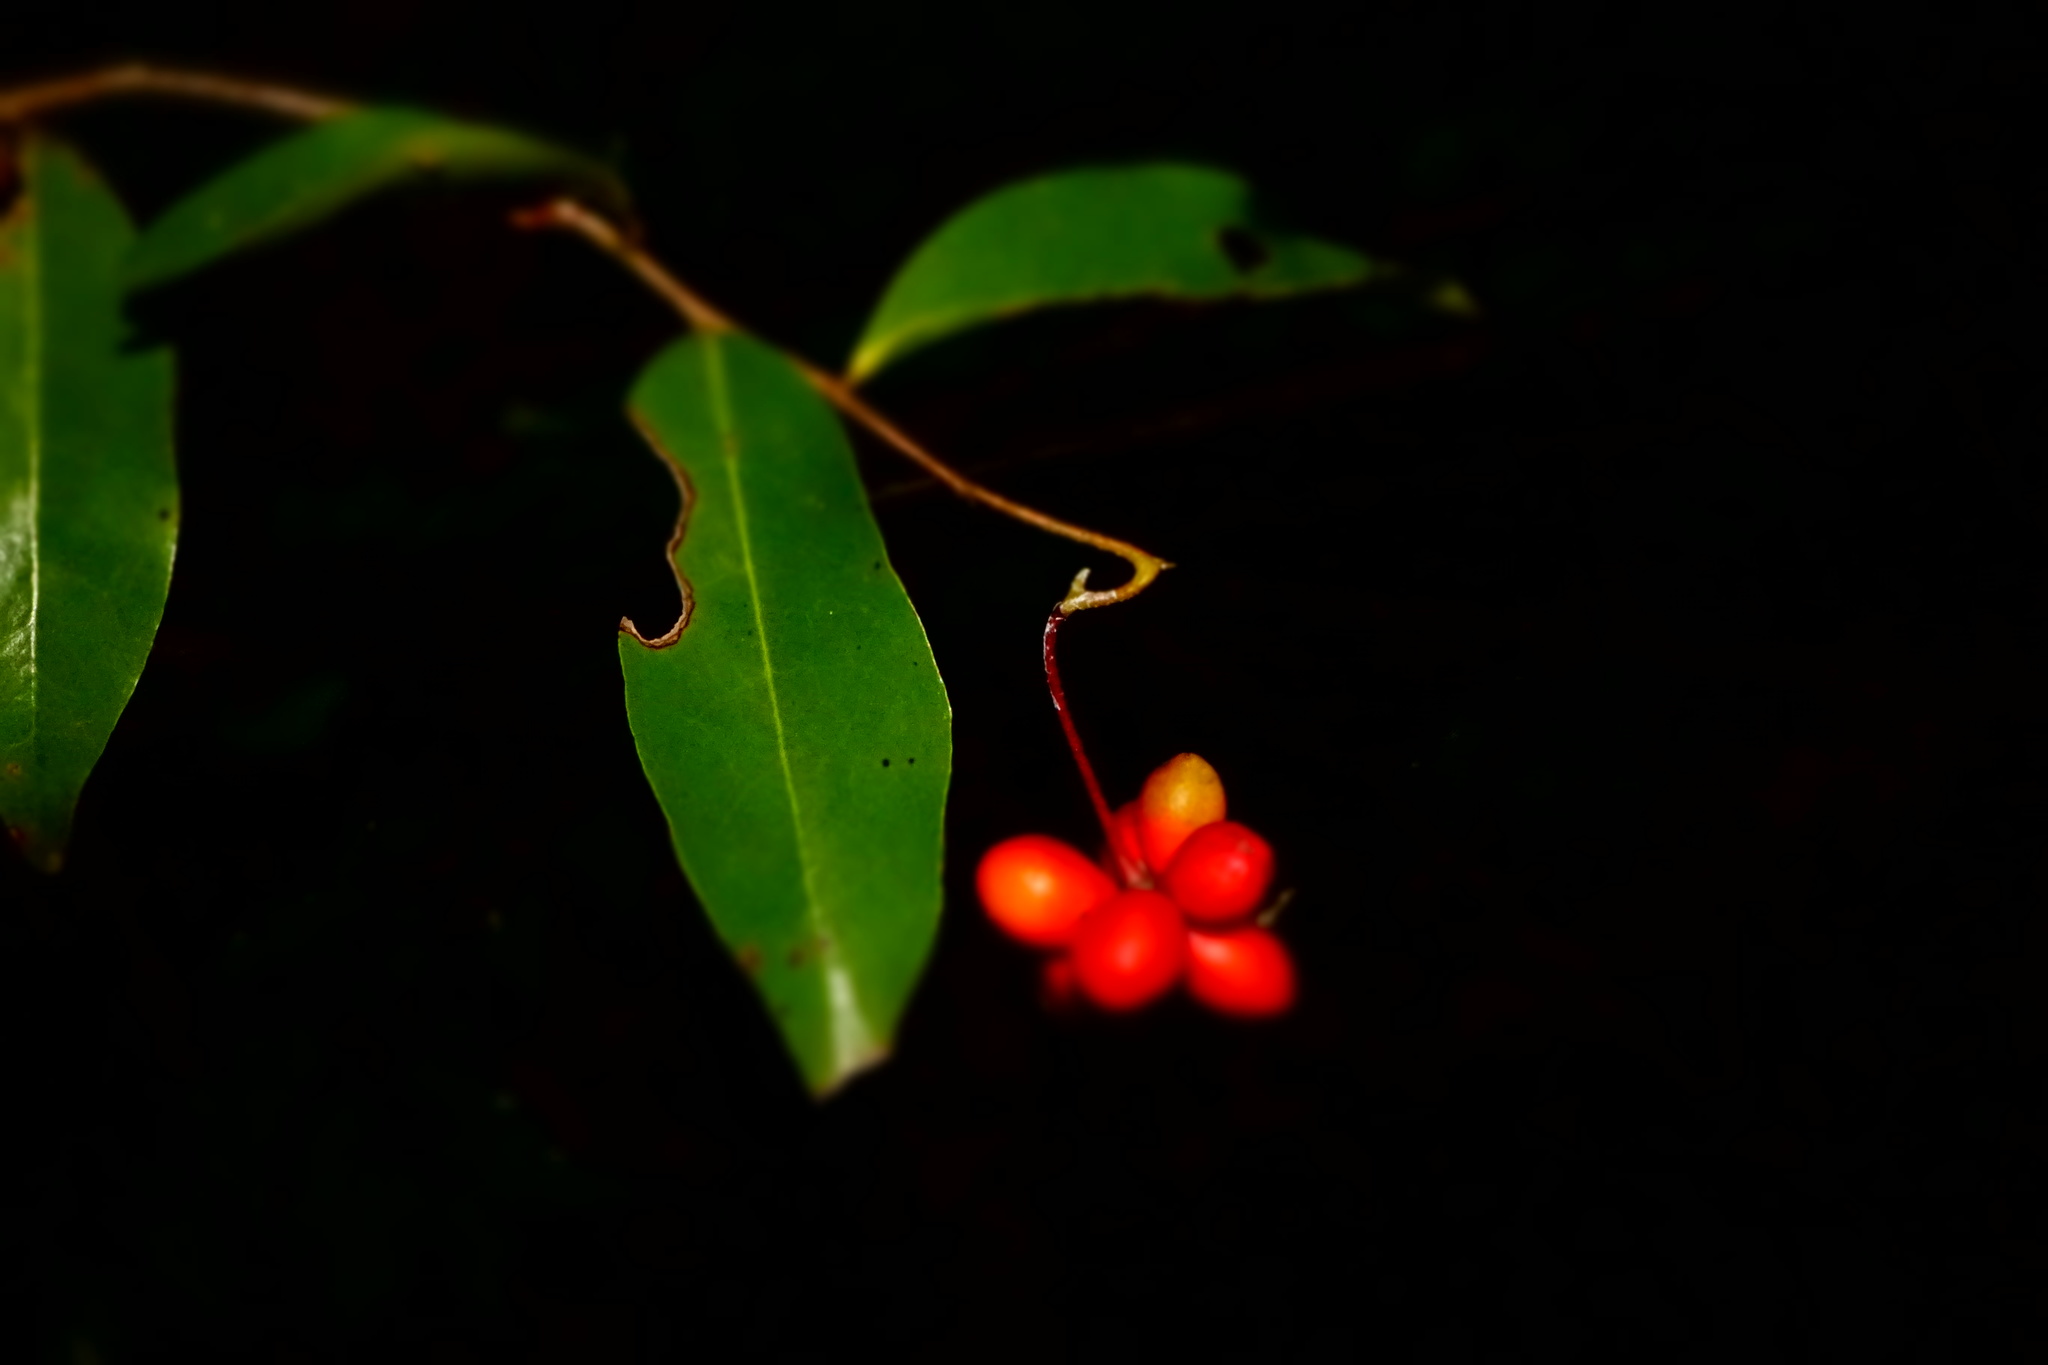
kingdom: Plantae
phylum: Tracheophyta
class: Magnoliopsida
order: Magnoliales
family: Annonaceae
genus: Artabotrys
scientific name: Artabotrys madagascariensis
